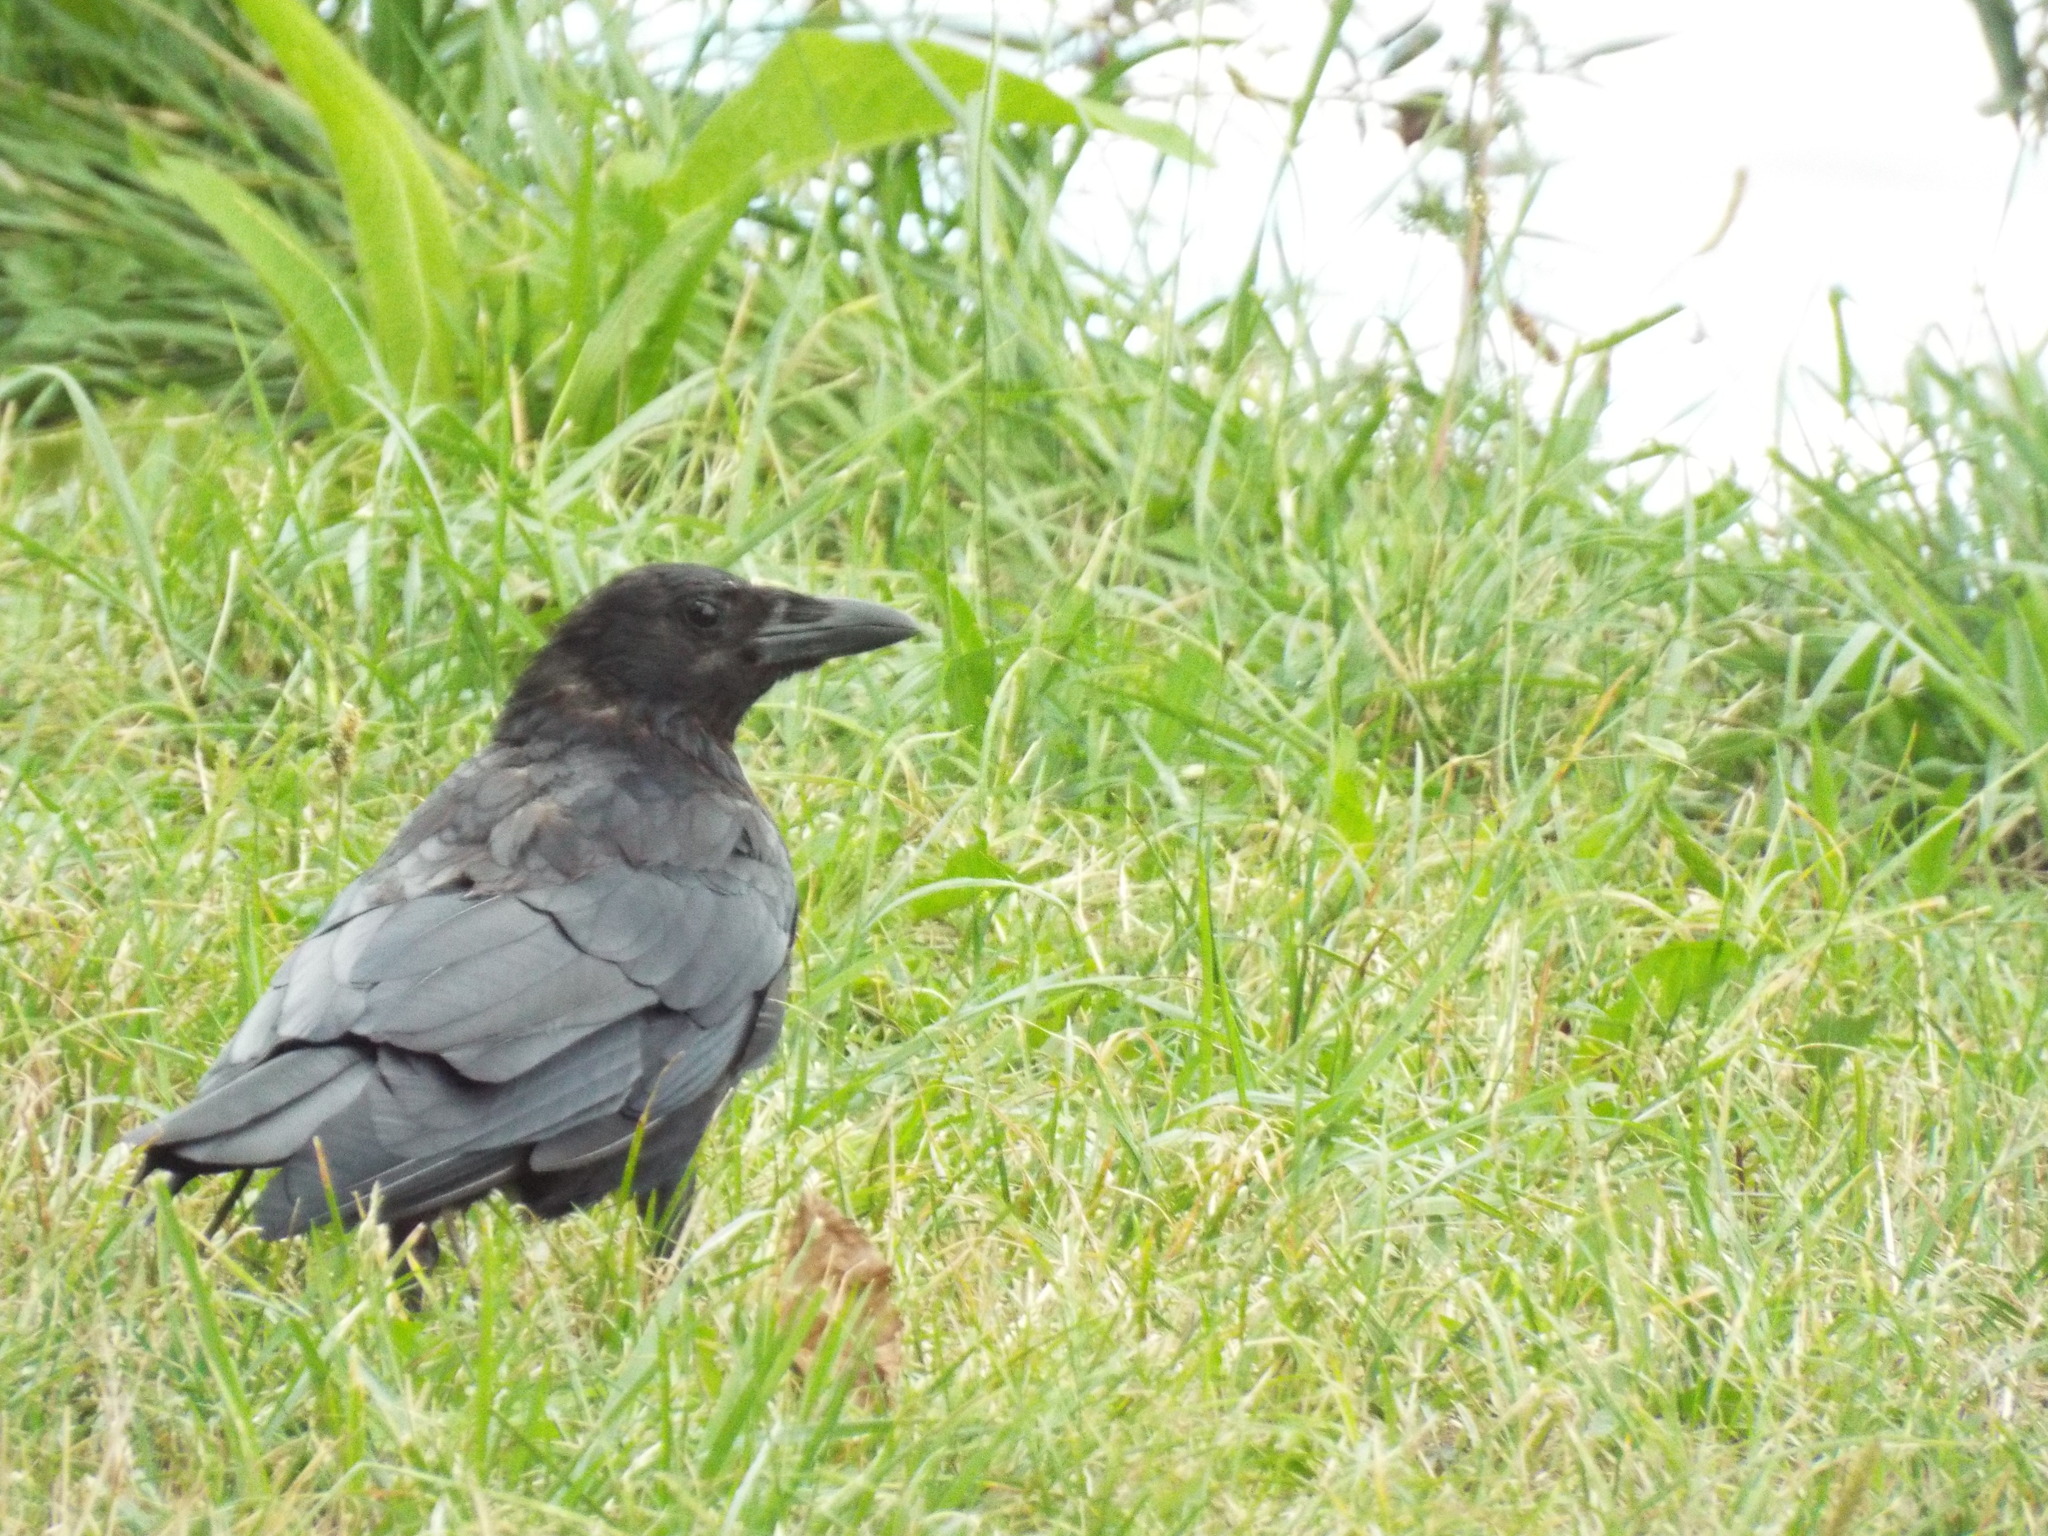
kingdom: Animalia
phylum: Chordata
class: Aves
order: Passeriformes
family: Corvidae
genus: Corvus
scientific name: Corvus corone
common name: Carrion crow
